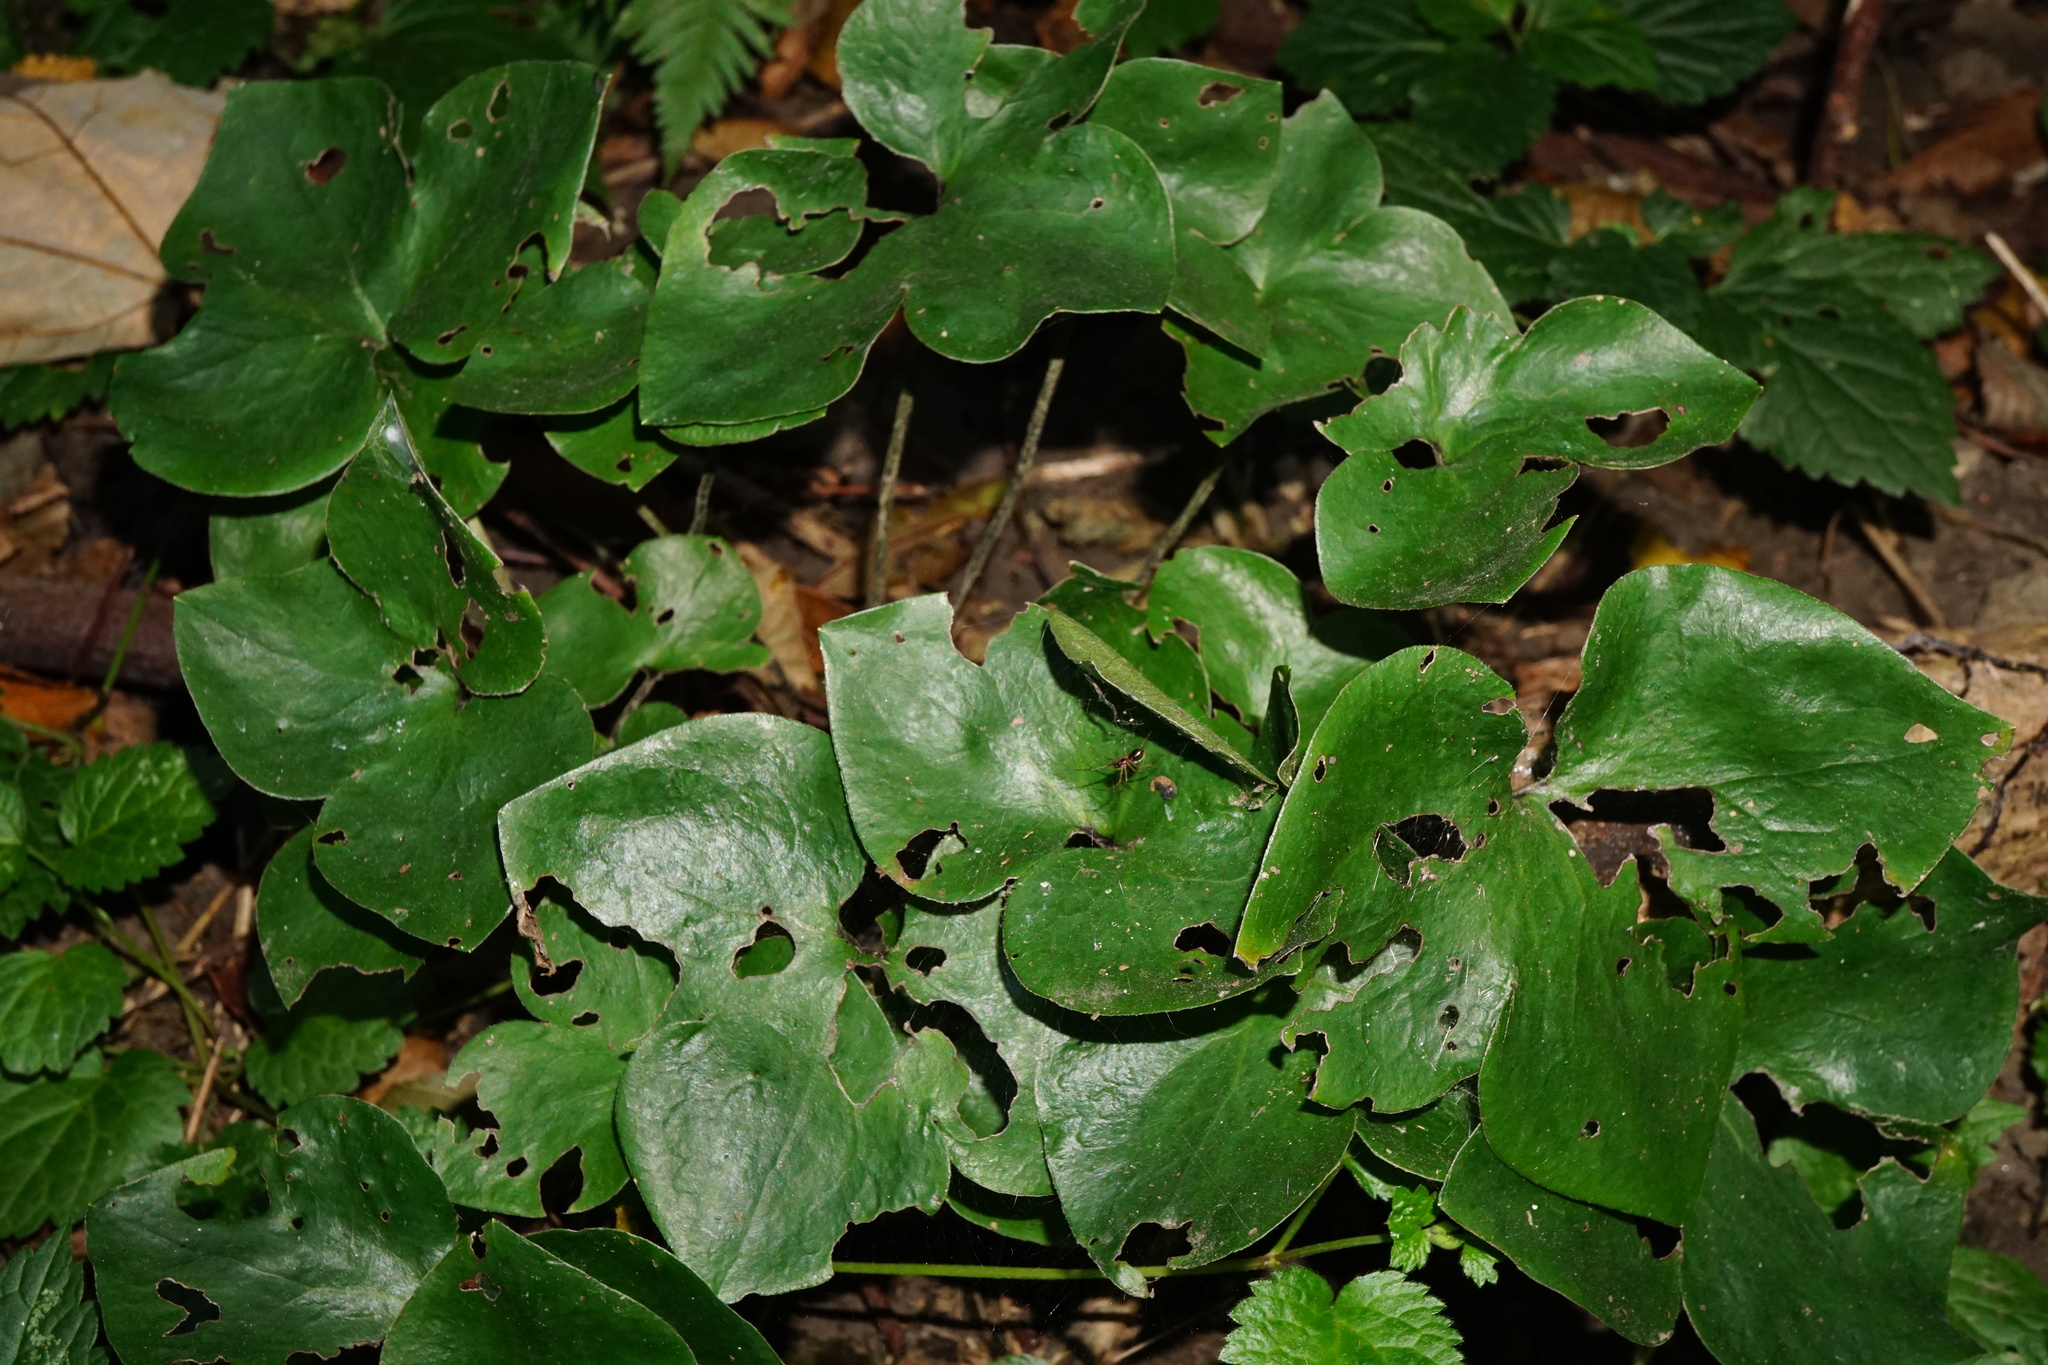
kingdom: Plantae
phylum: Tracheophyta
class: Magnoliopsida
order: Ranunculales
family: Ranunculaceae
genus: Hepatica
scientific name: Hepatica nobilis
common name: Liverleaf
